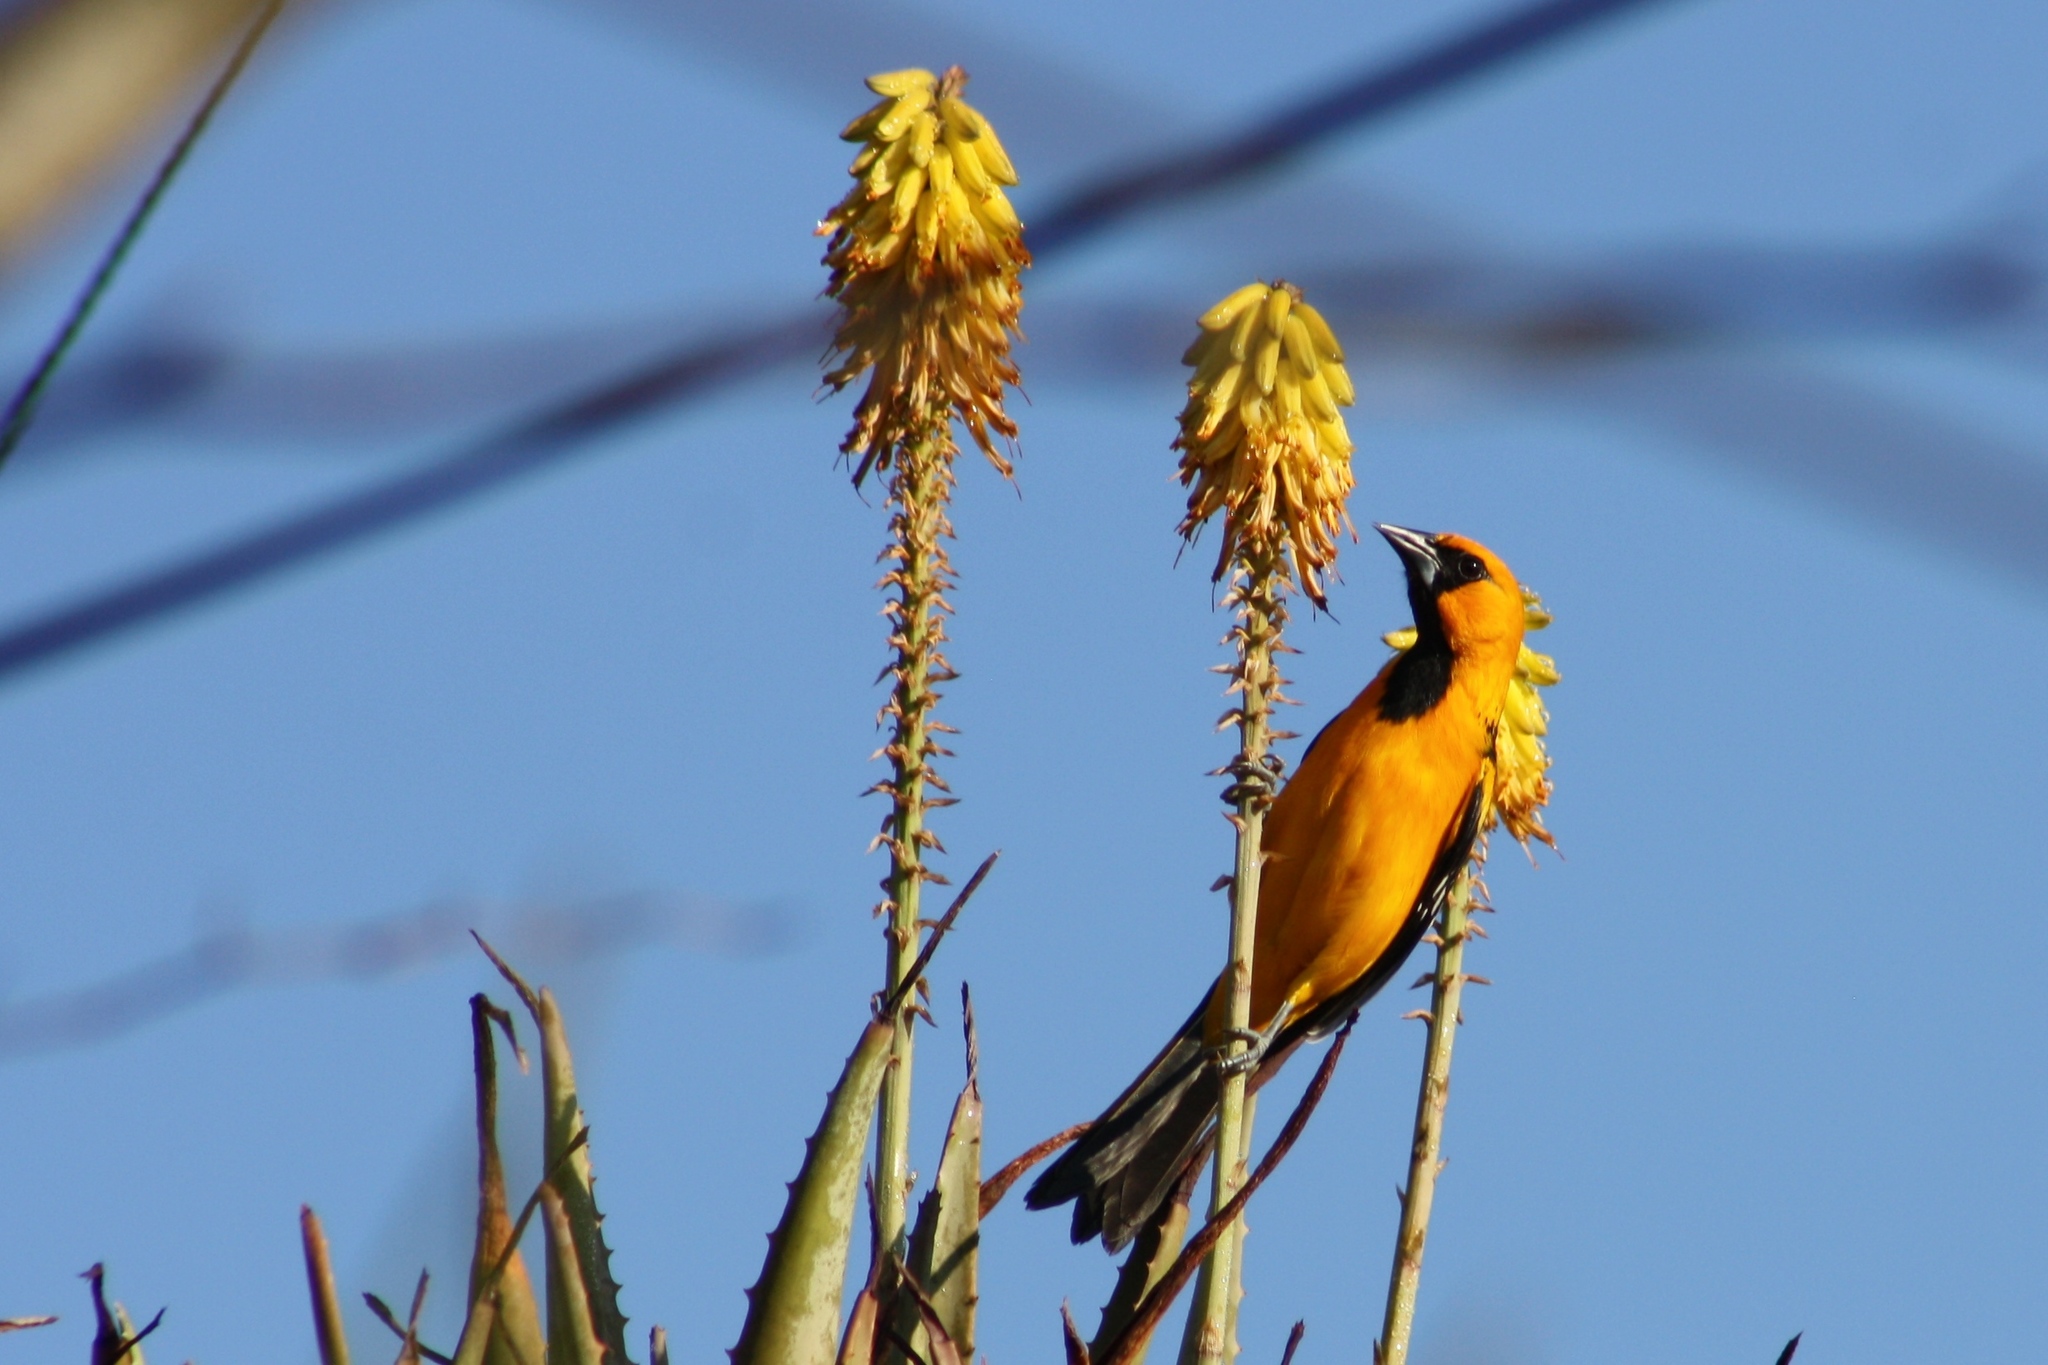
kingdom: Animalia
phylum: Chordata
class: Aves
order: Passeriformes
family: Icteridae
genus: Icterus
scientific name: Icterus gularis
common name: Altamira oriole
